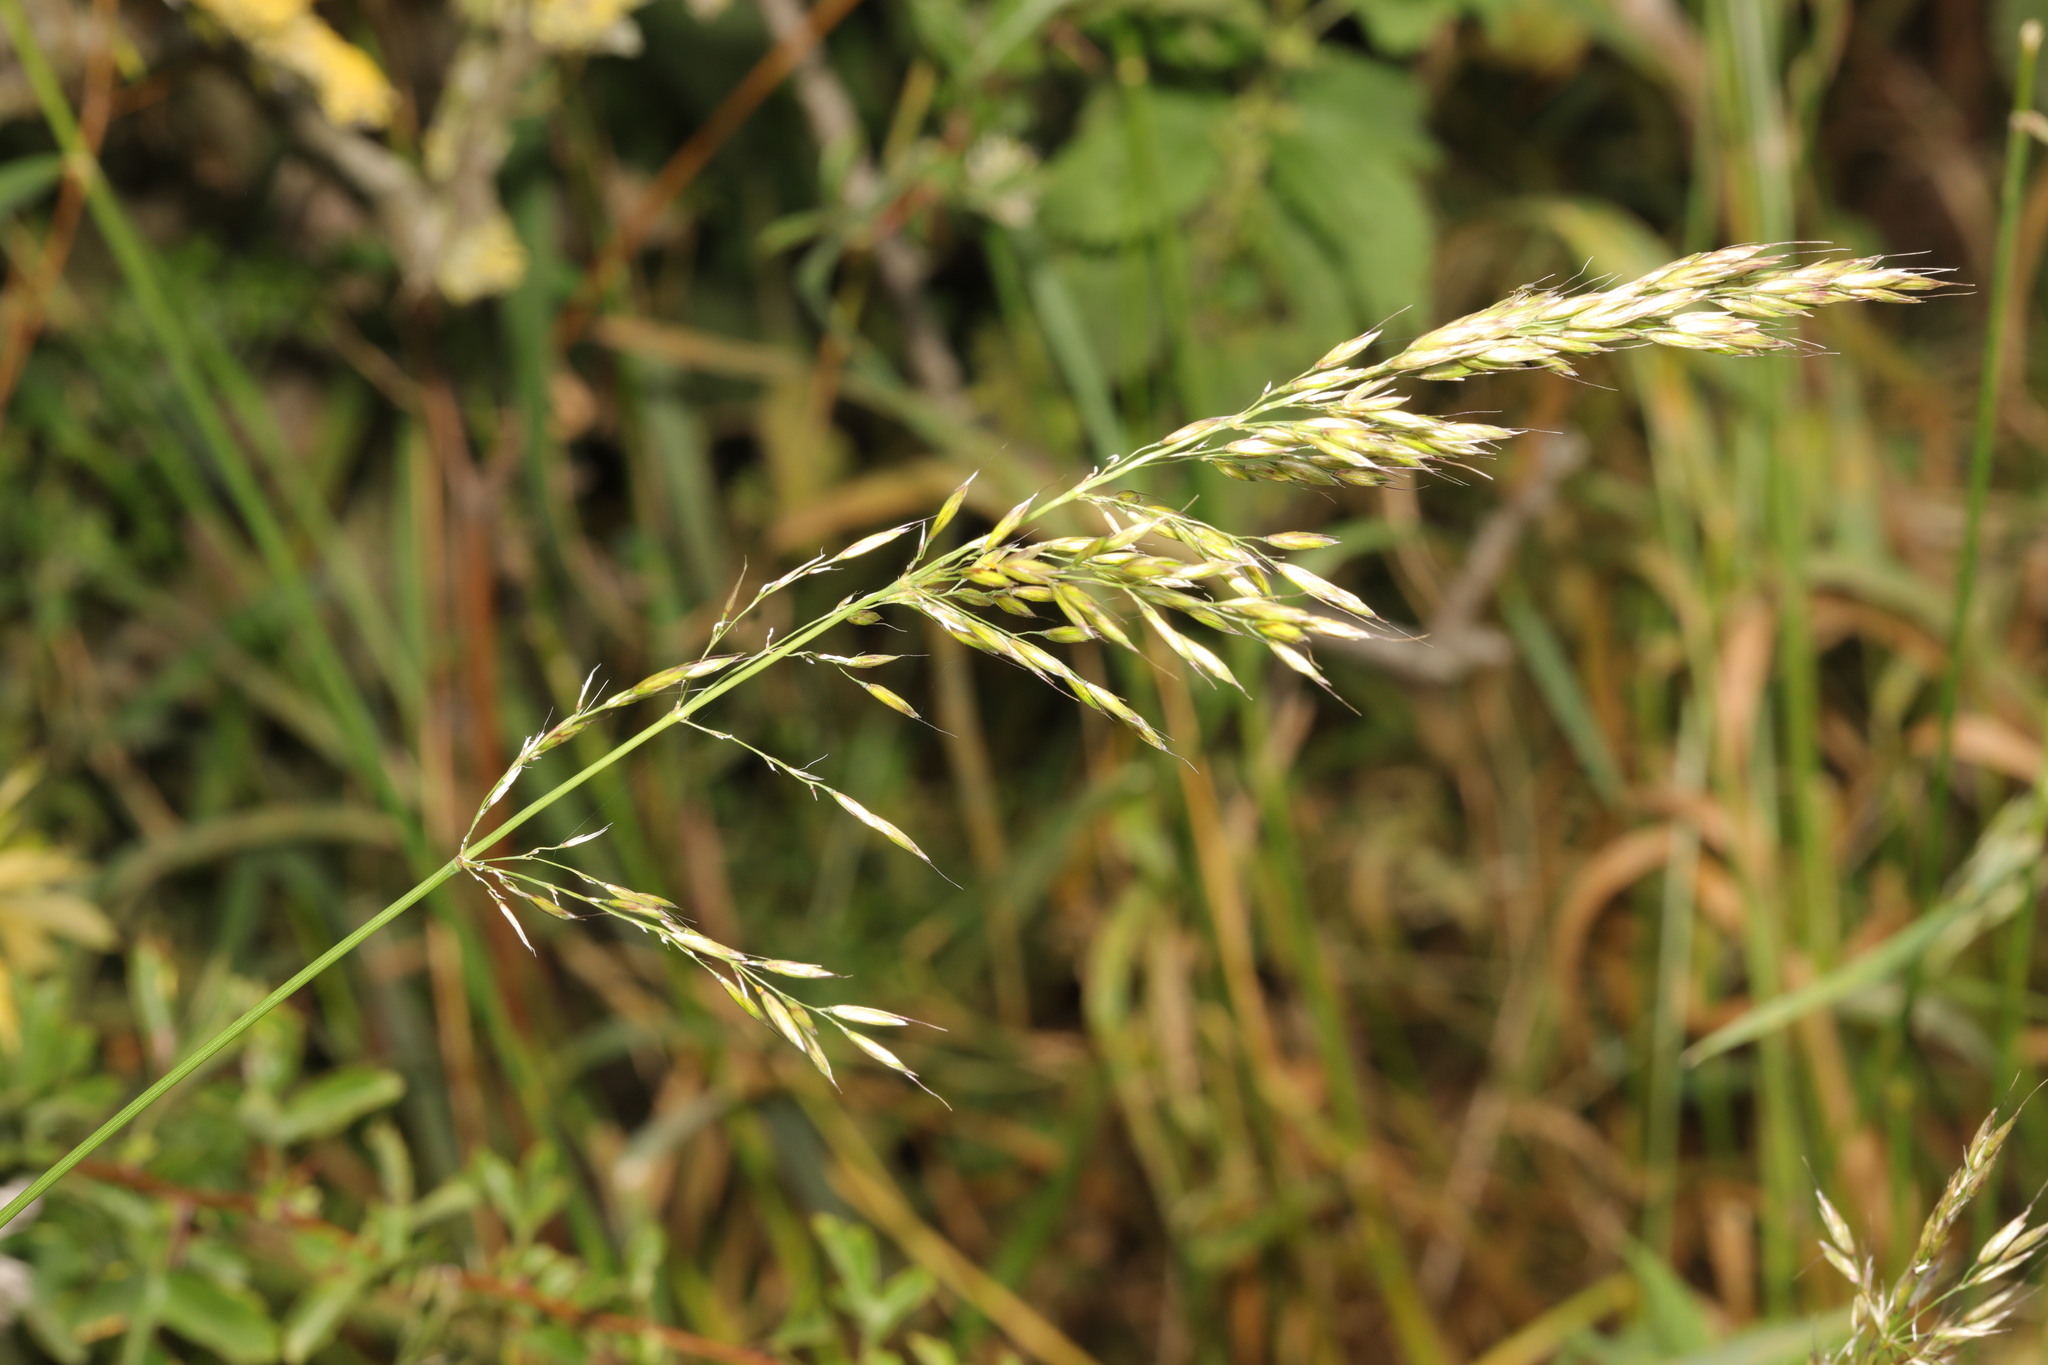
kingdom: Plantae
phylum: Tracheophyta
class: Liliopsida
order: Poales
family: Poaceae
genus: Arrhenatherum
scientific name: Arrhenatherum elatius
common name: Tall oatgrass
